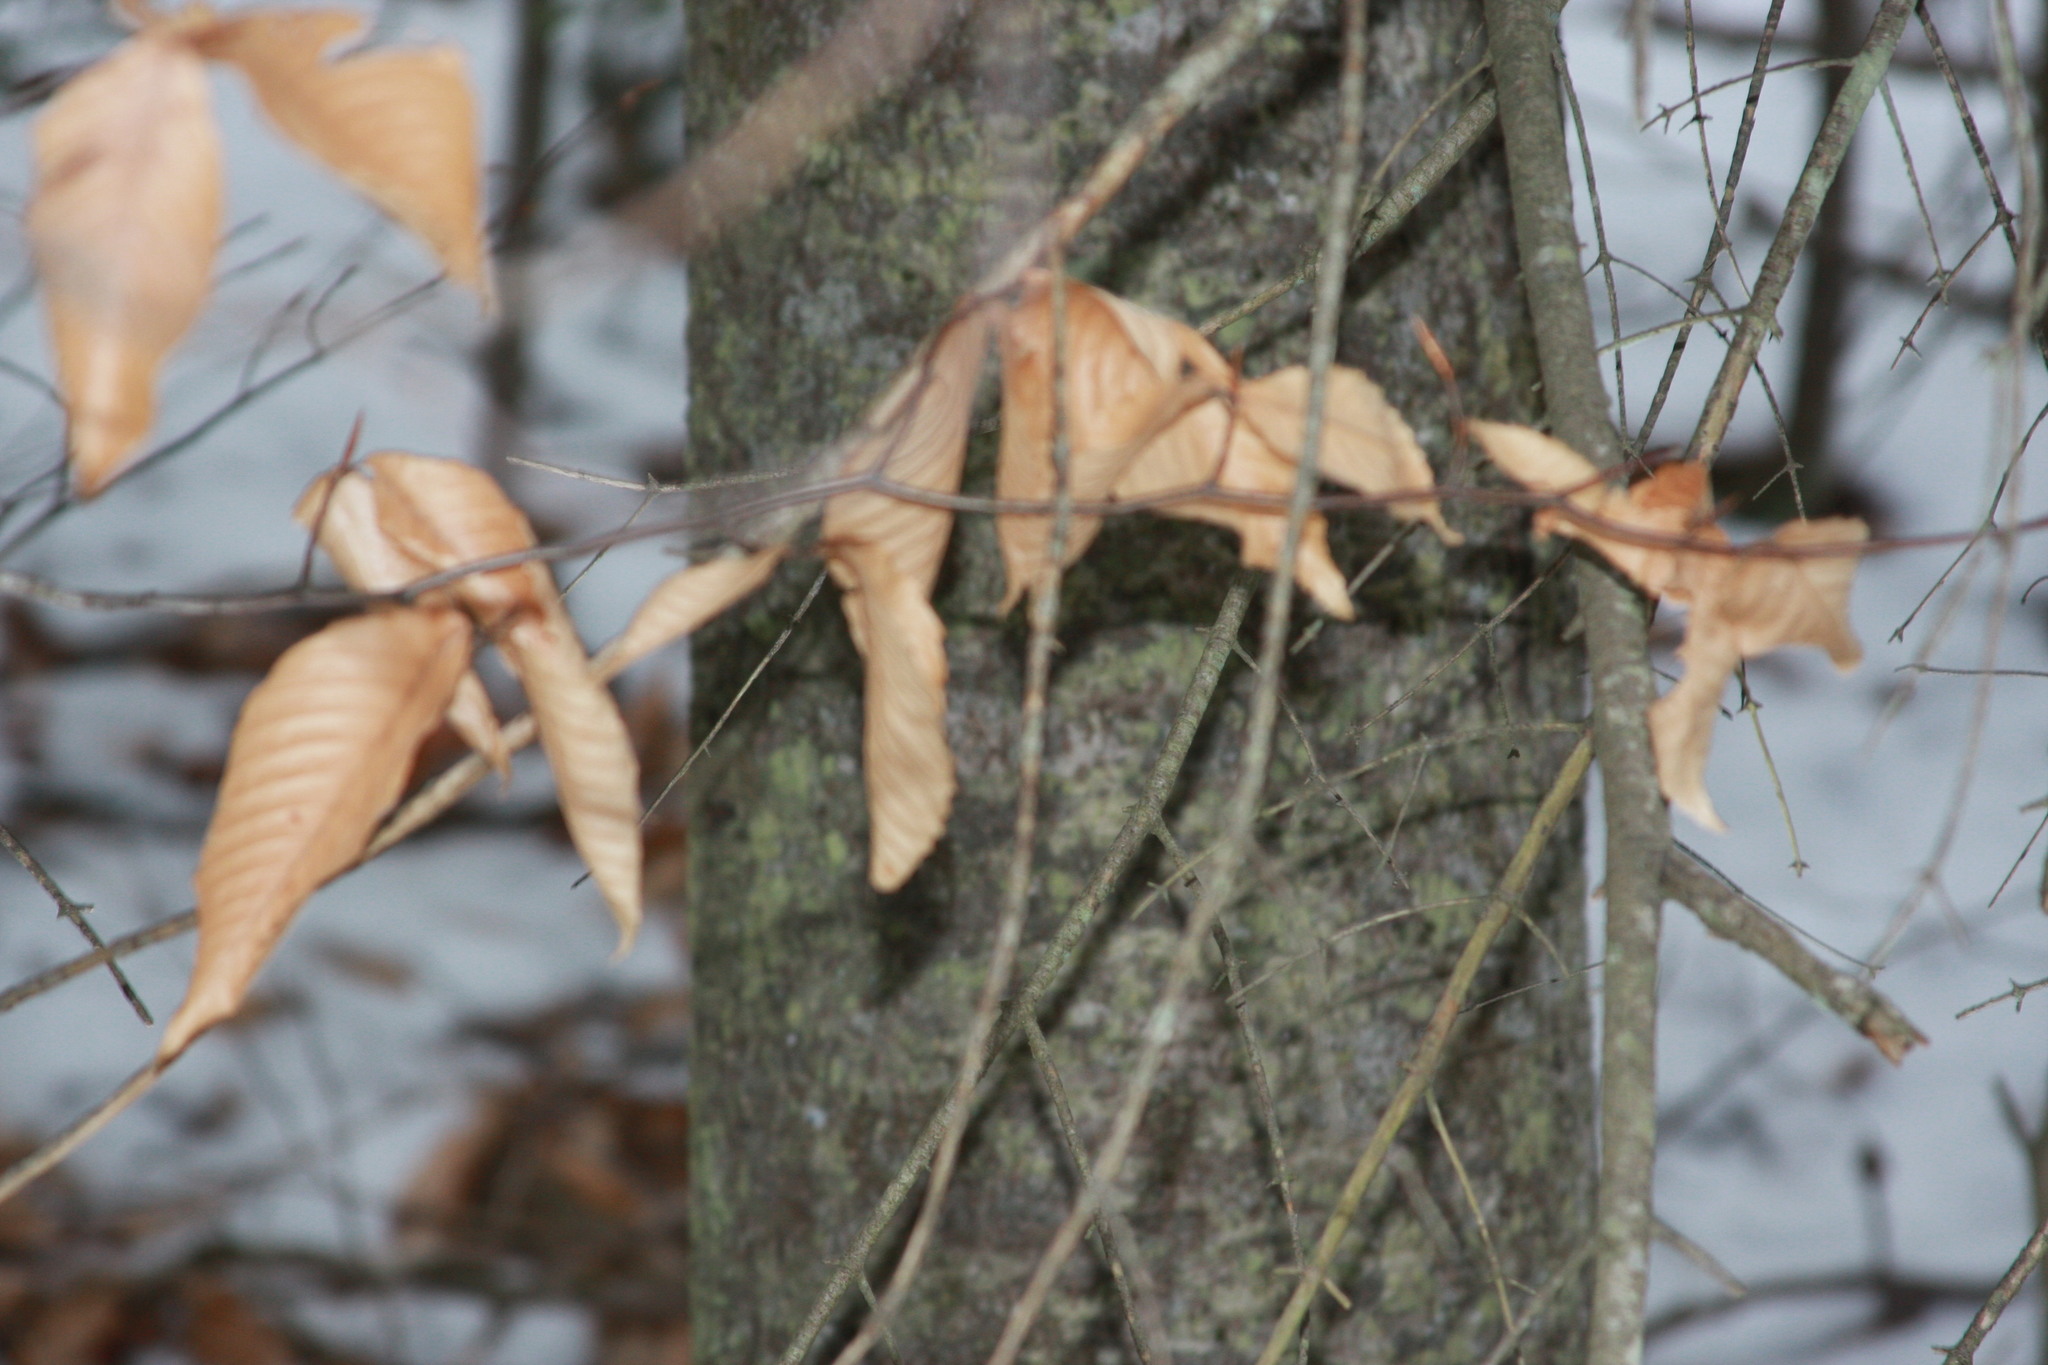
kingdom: Plantae
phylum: Tracheophyta
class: Pinopsida
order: Pinales
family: Pinaceae
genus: Abies
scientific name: Abies balsamea
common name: Balsam fir
